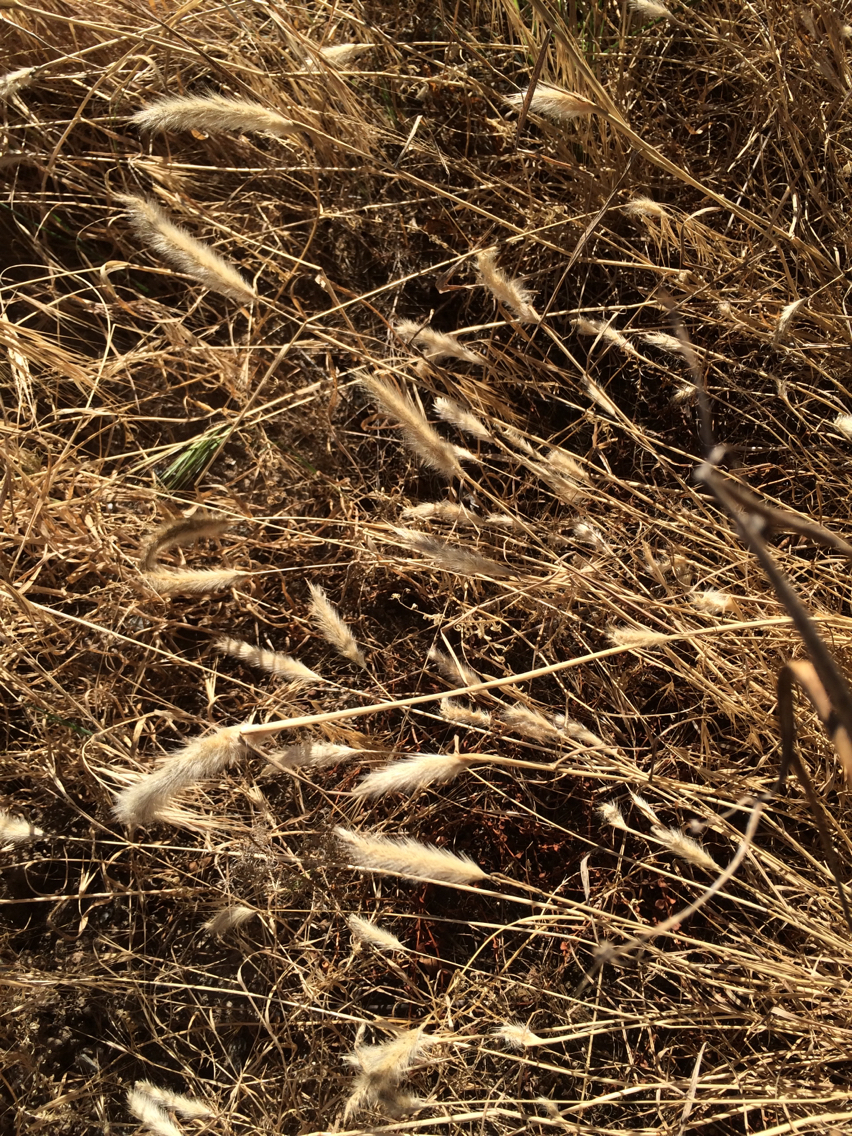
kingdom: Plantae
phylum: Tracheophyta
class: Liliopsida
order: Poales
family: Poaceae
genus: Polypogon
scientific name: Polypogon monspeliensis
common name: Annual rabbitsfoot grass
